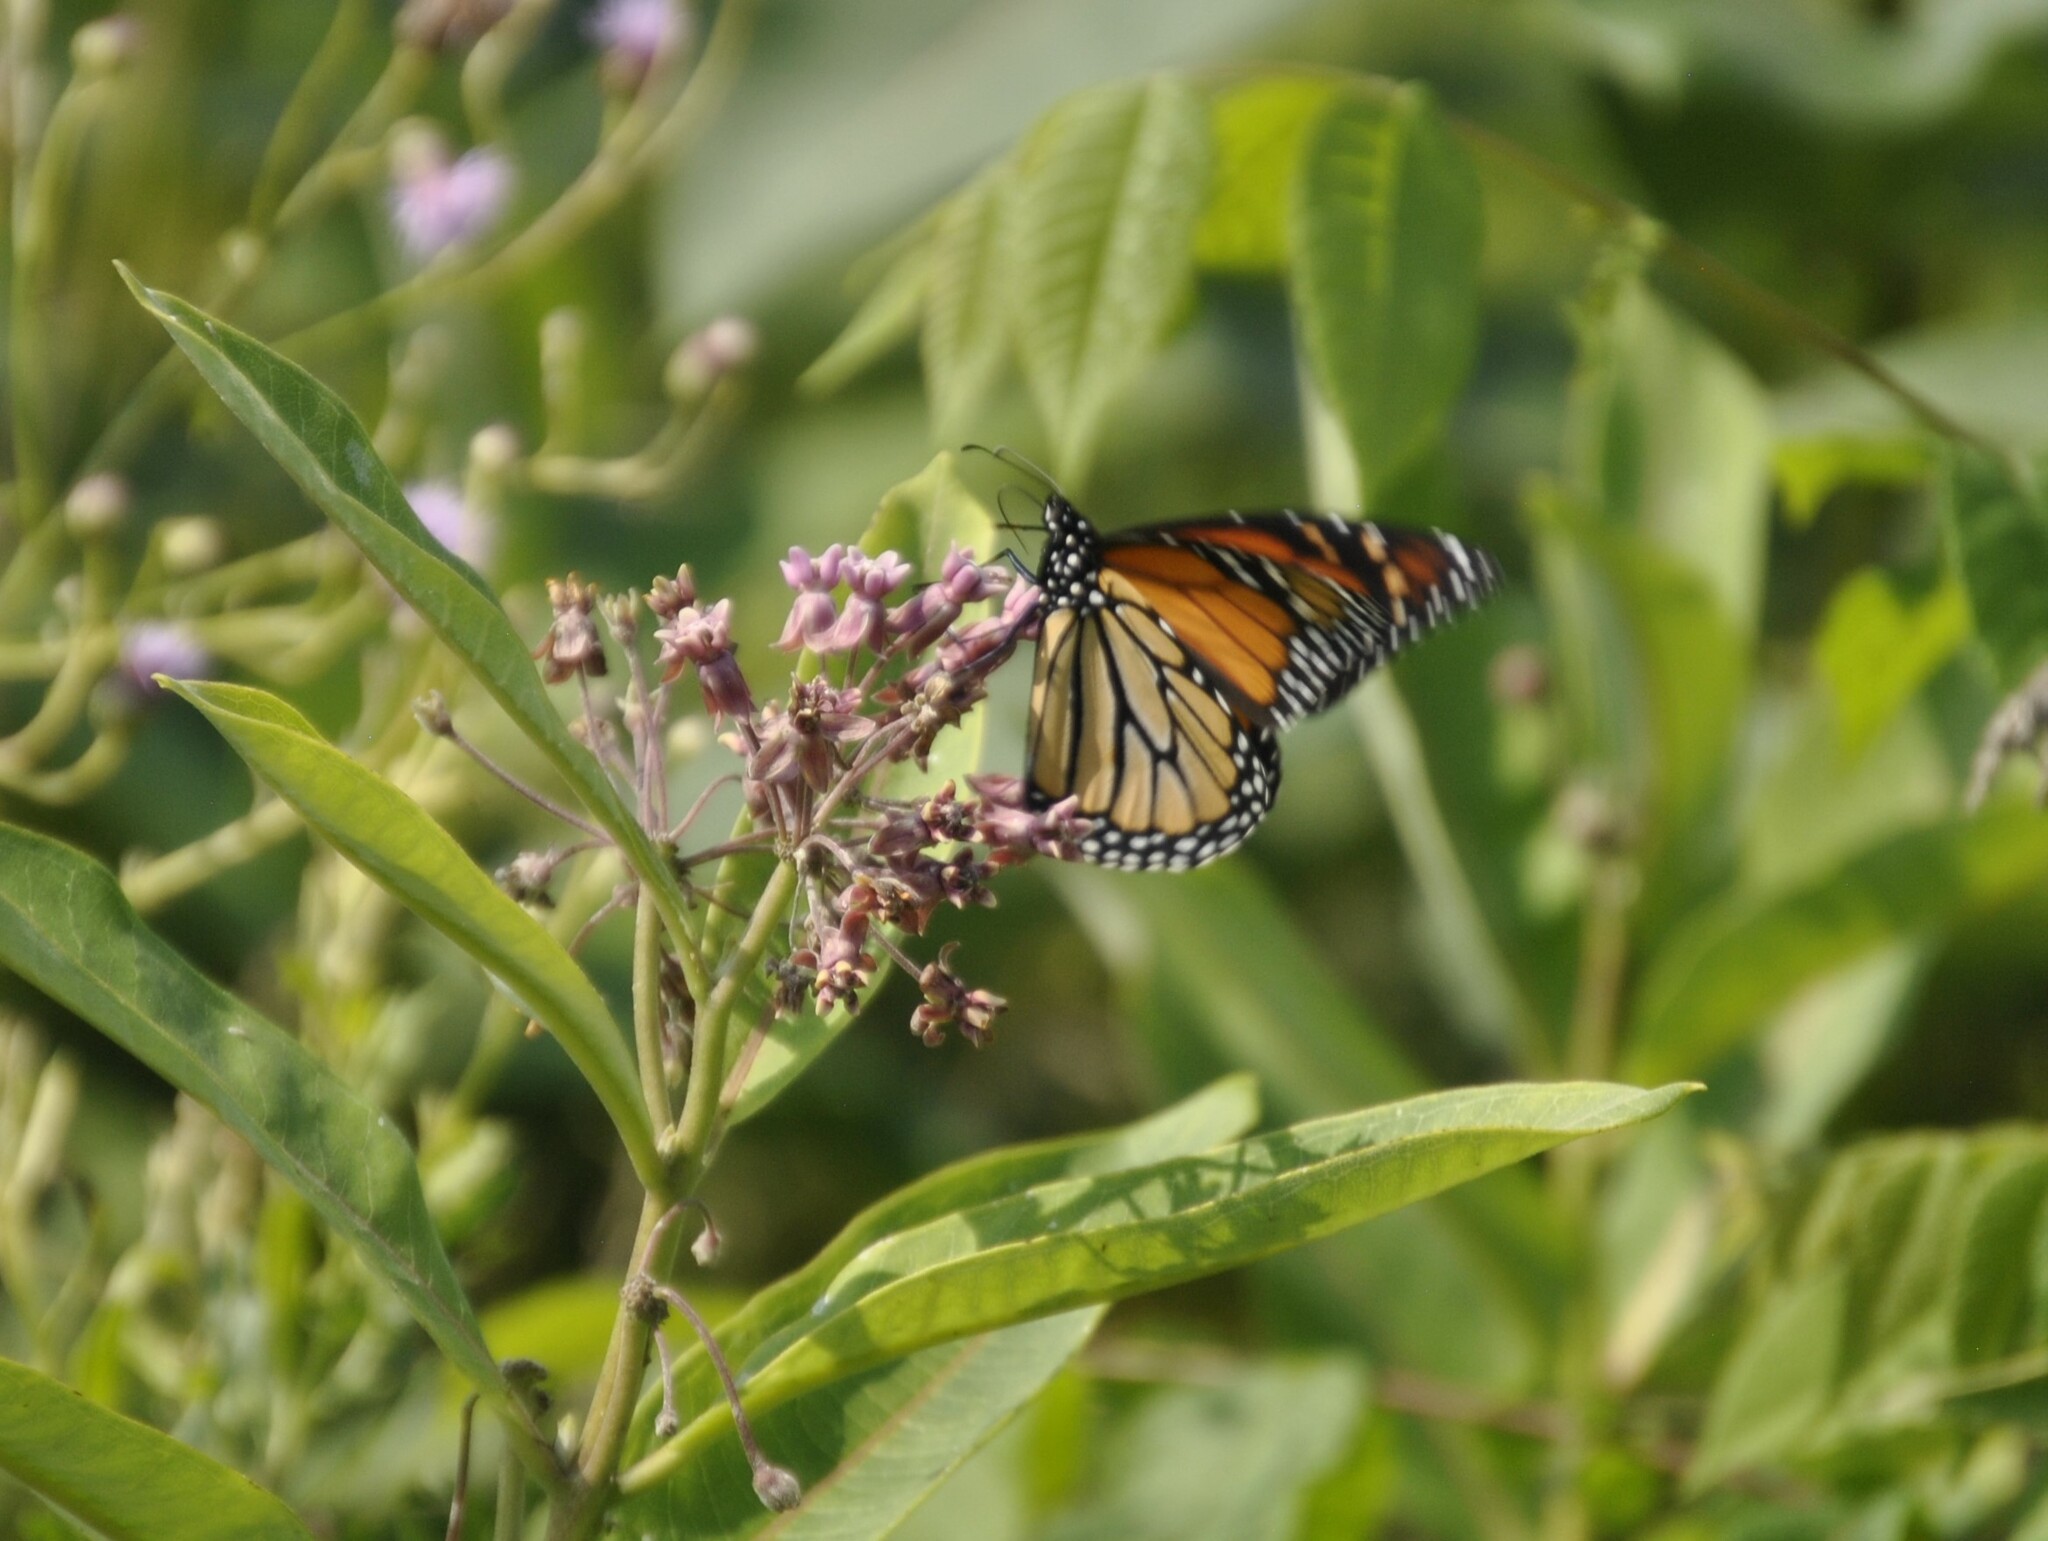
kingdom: Animalia
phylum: Arthropoda
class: Insecta
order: Lepidoptera
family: Nymphalidae
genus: Danaus
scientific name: Danaus plexippus
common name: Monarch
